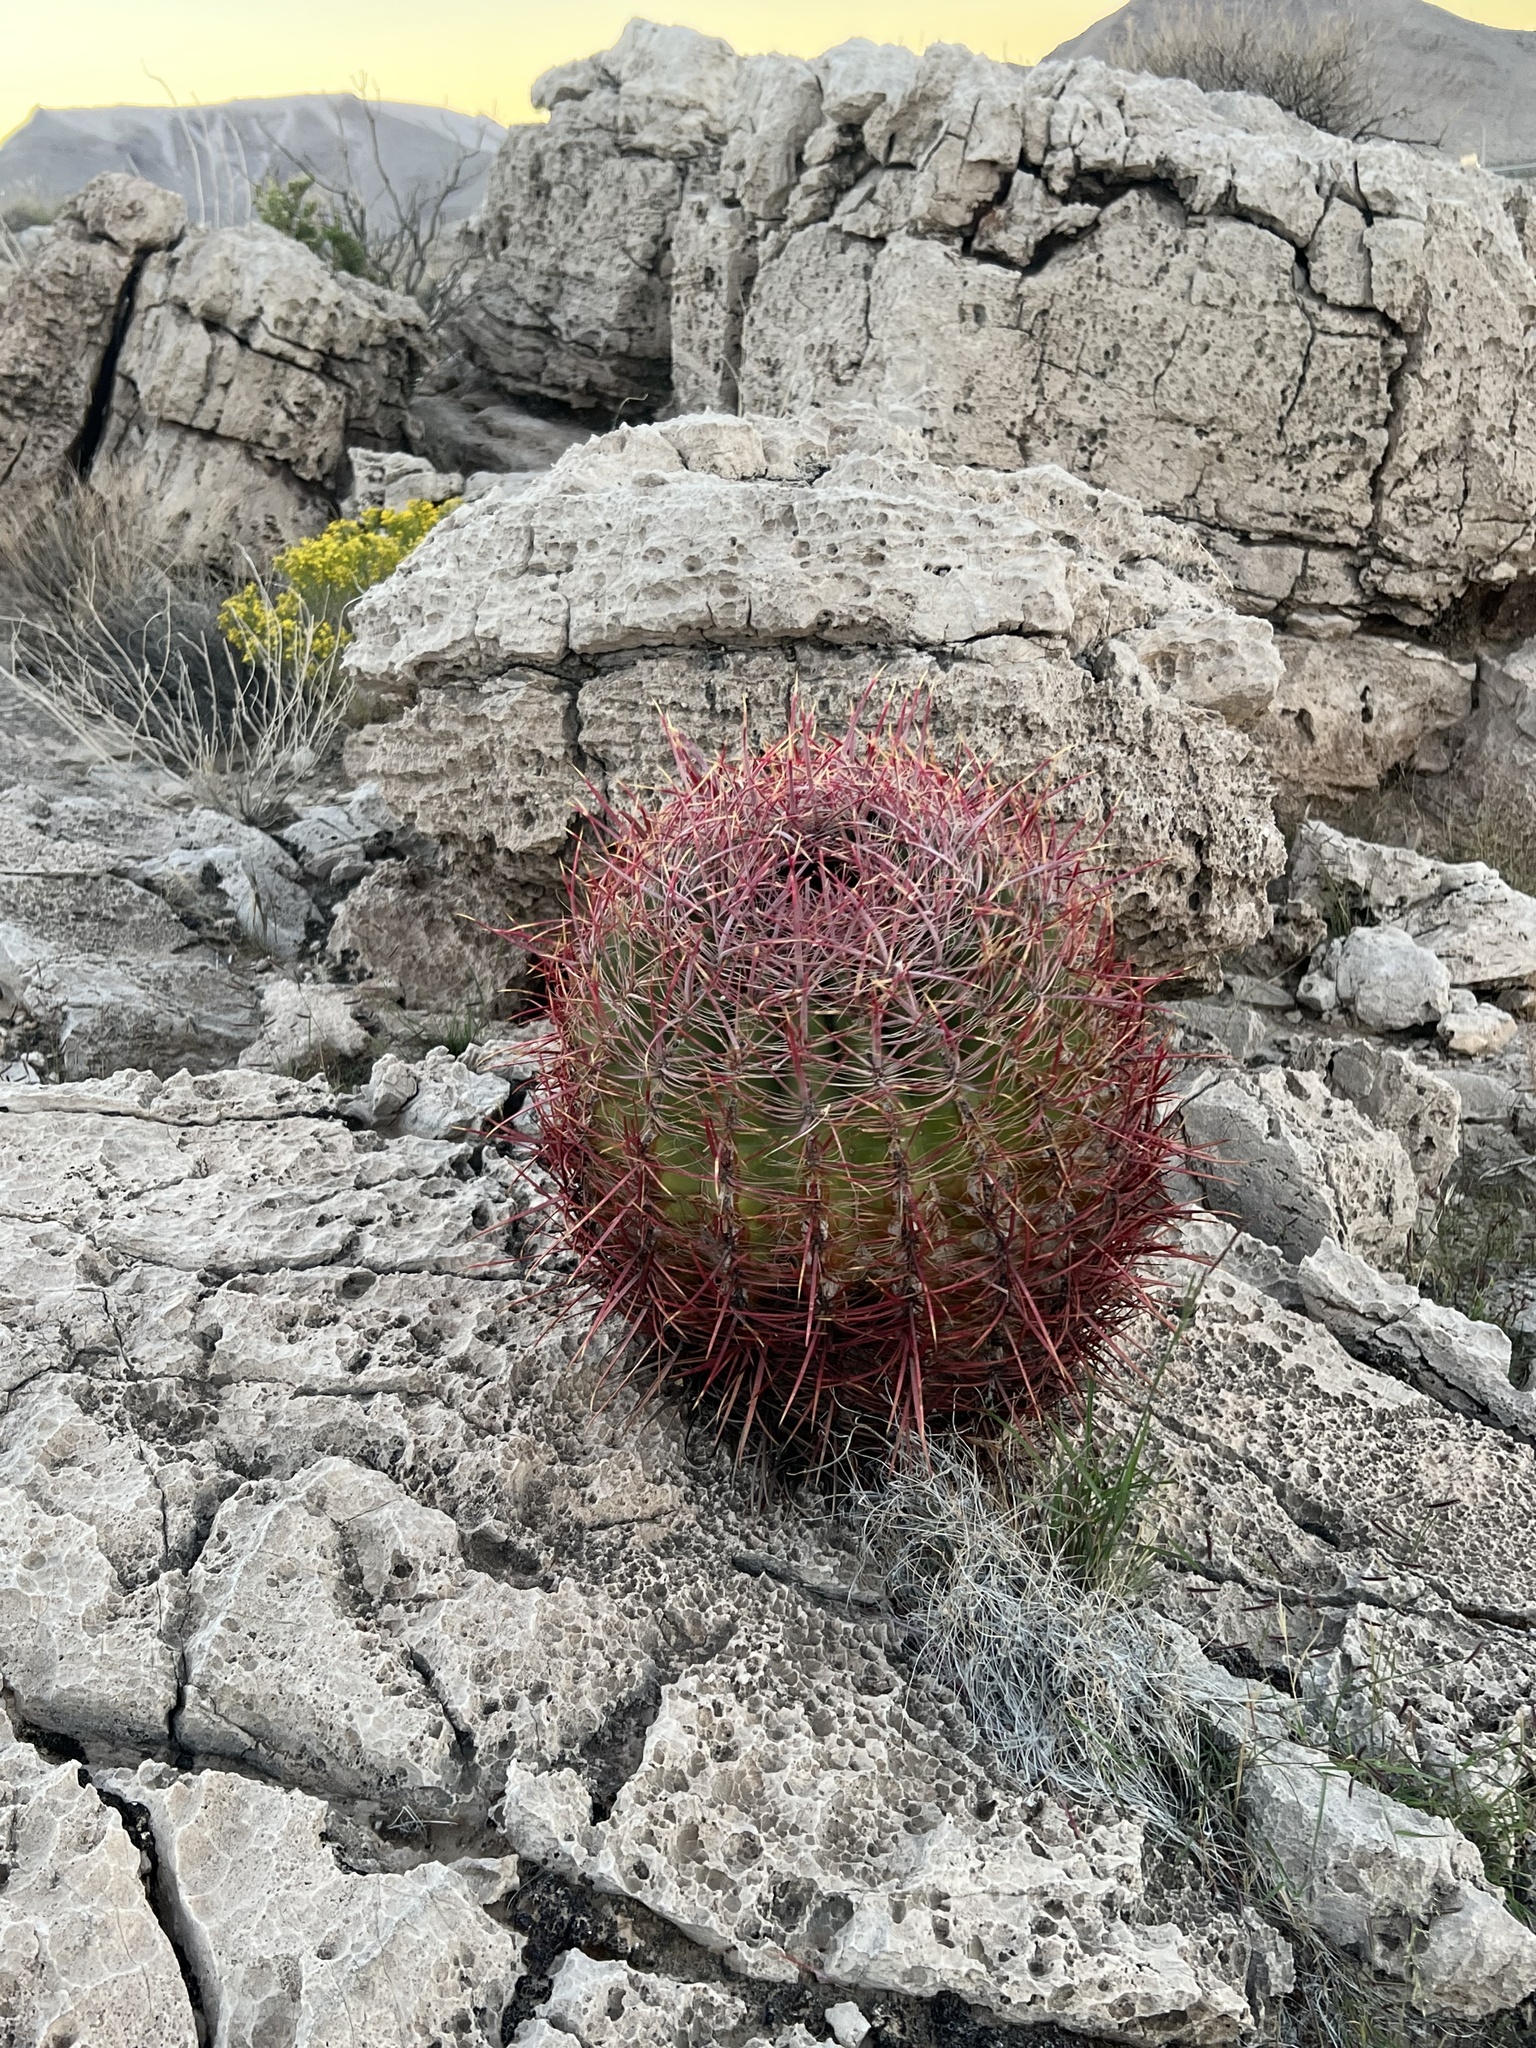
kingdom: Plantae
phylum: Tracheophyta
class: Magnoliopsida
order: Caryophyllales
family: Cactaceae
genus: Ferocactus
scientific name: Ferocactus cylindraceus
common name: California barrel cactus
